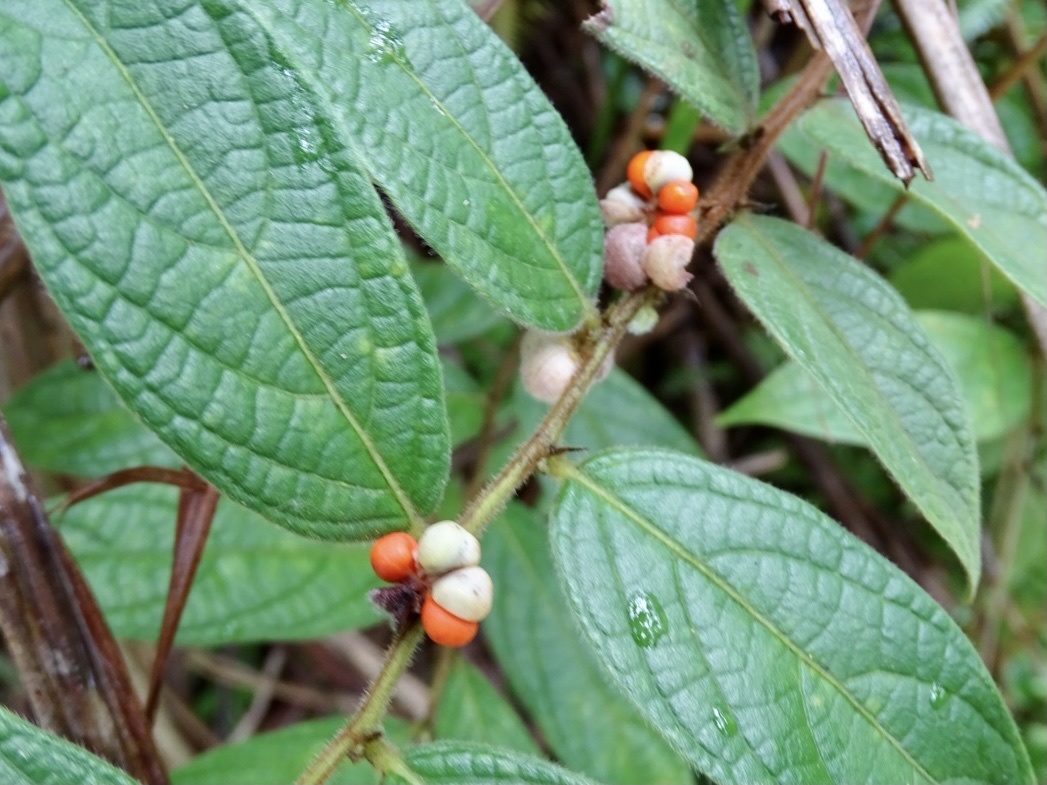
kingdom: Plantae
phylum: Tracheophyta
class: Magnoliopsida
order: Malpighiales
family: Phyllanthaceae
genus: Glochidion
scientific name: Glochidion eriocarpum
